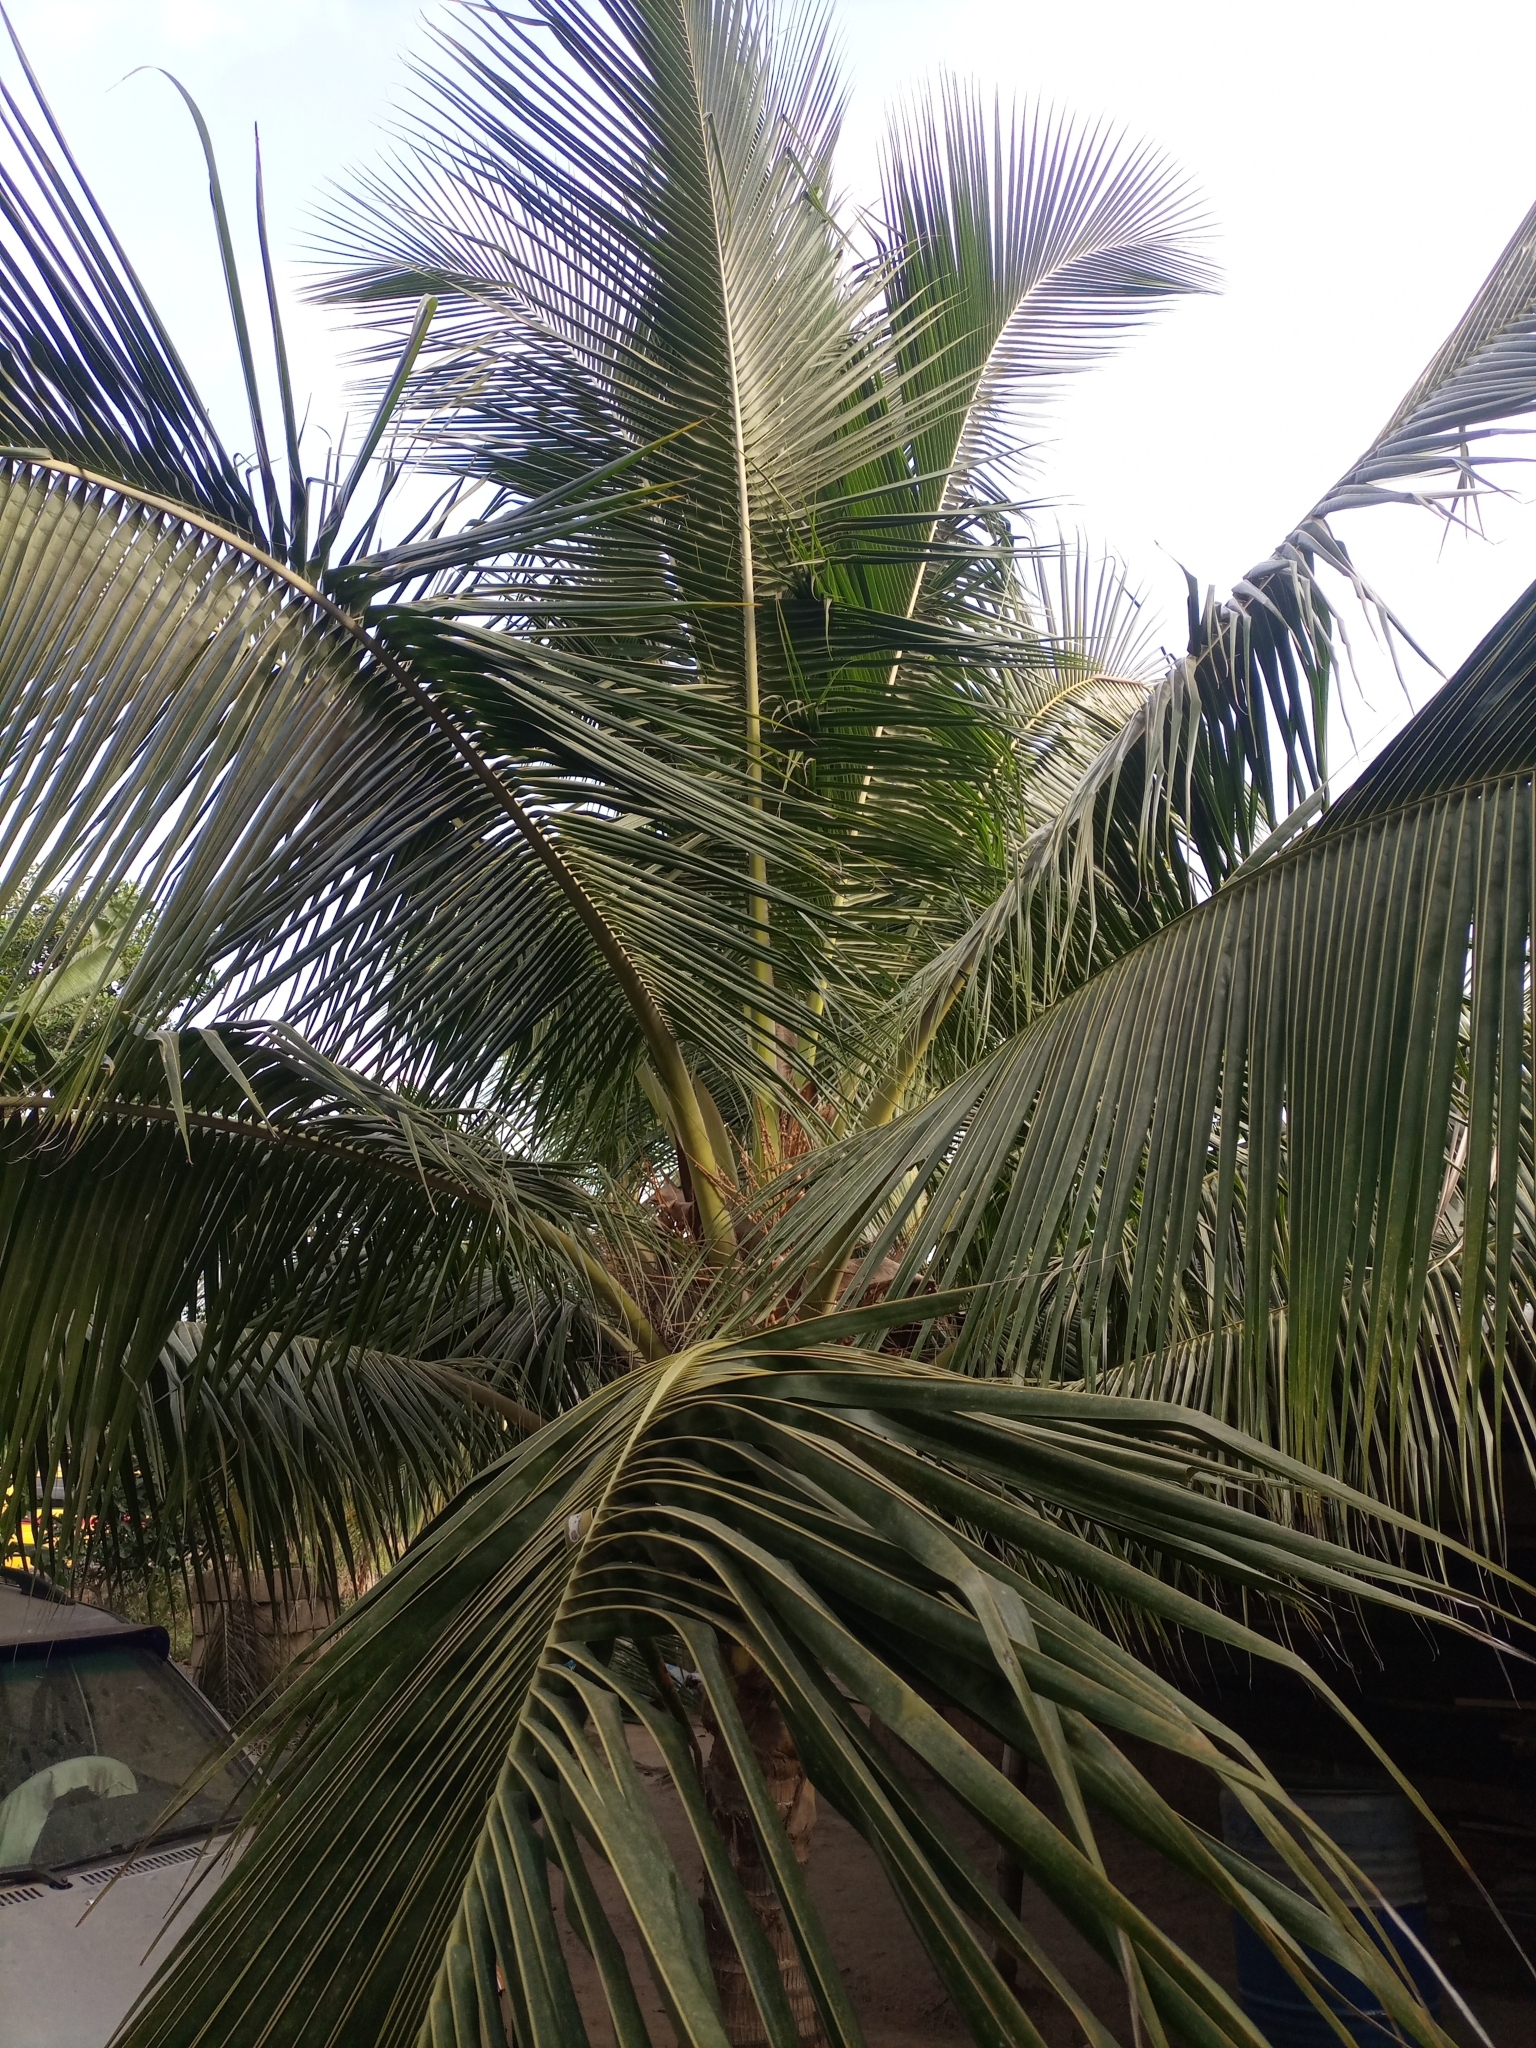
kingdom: Plantae
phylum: Tracheophyta
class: Liliopsida
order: Arecales
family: Arecaceae
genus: Cocos
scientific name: Cocos nucifera
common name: Coconut palm
